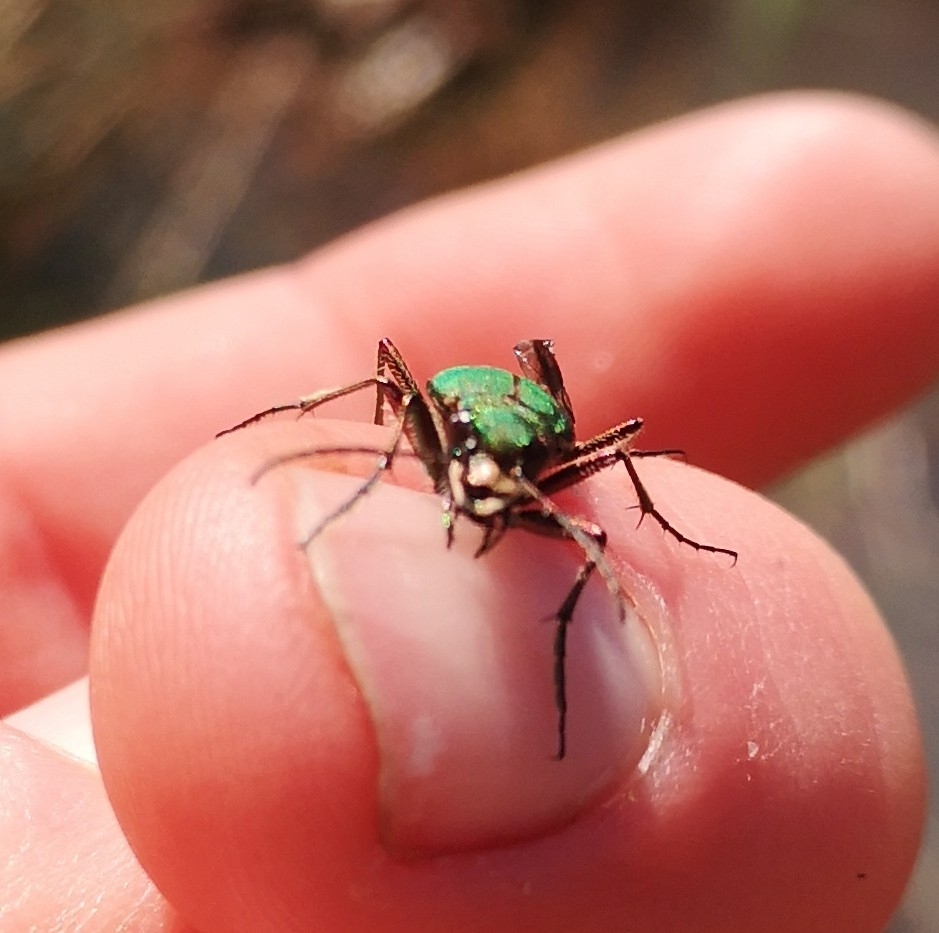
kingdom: Animalia
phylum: Arthropoda
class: Insecta
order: Coleoptera
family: Carabidae
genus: Cicindela
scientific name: Cicindela campestris
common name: Common tiger beetle
